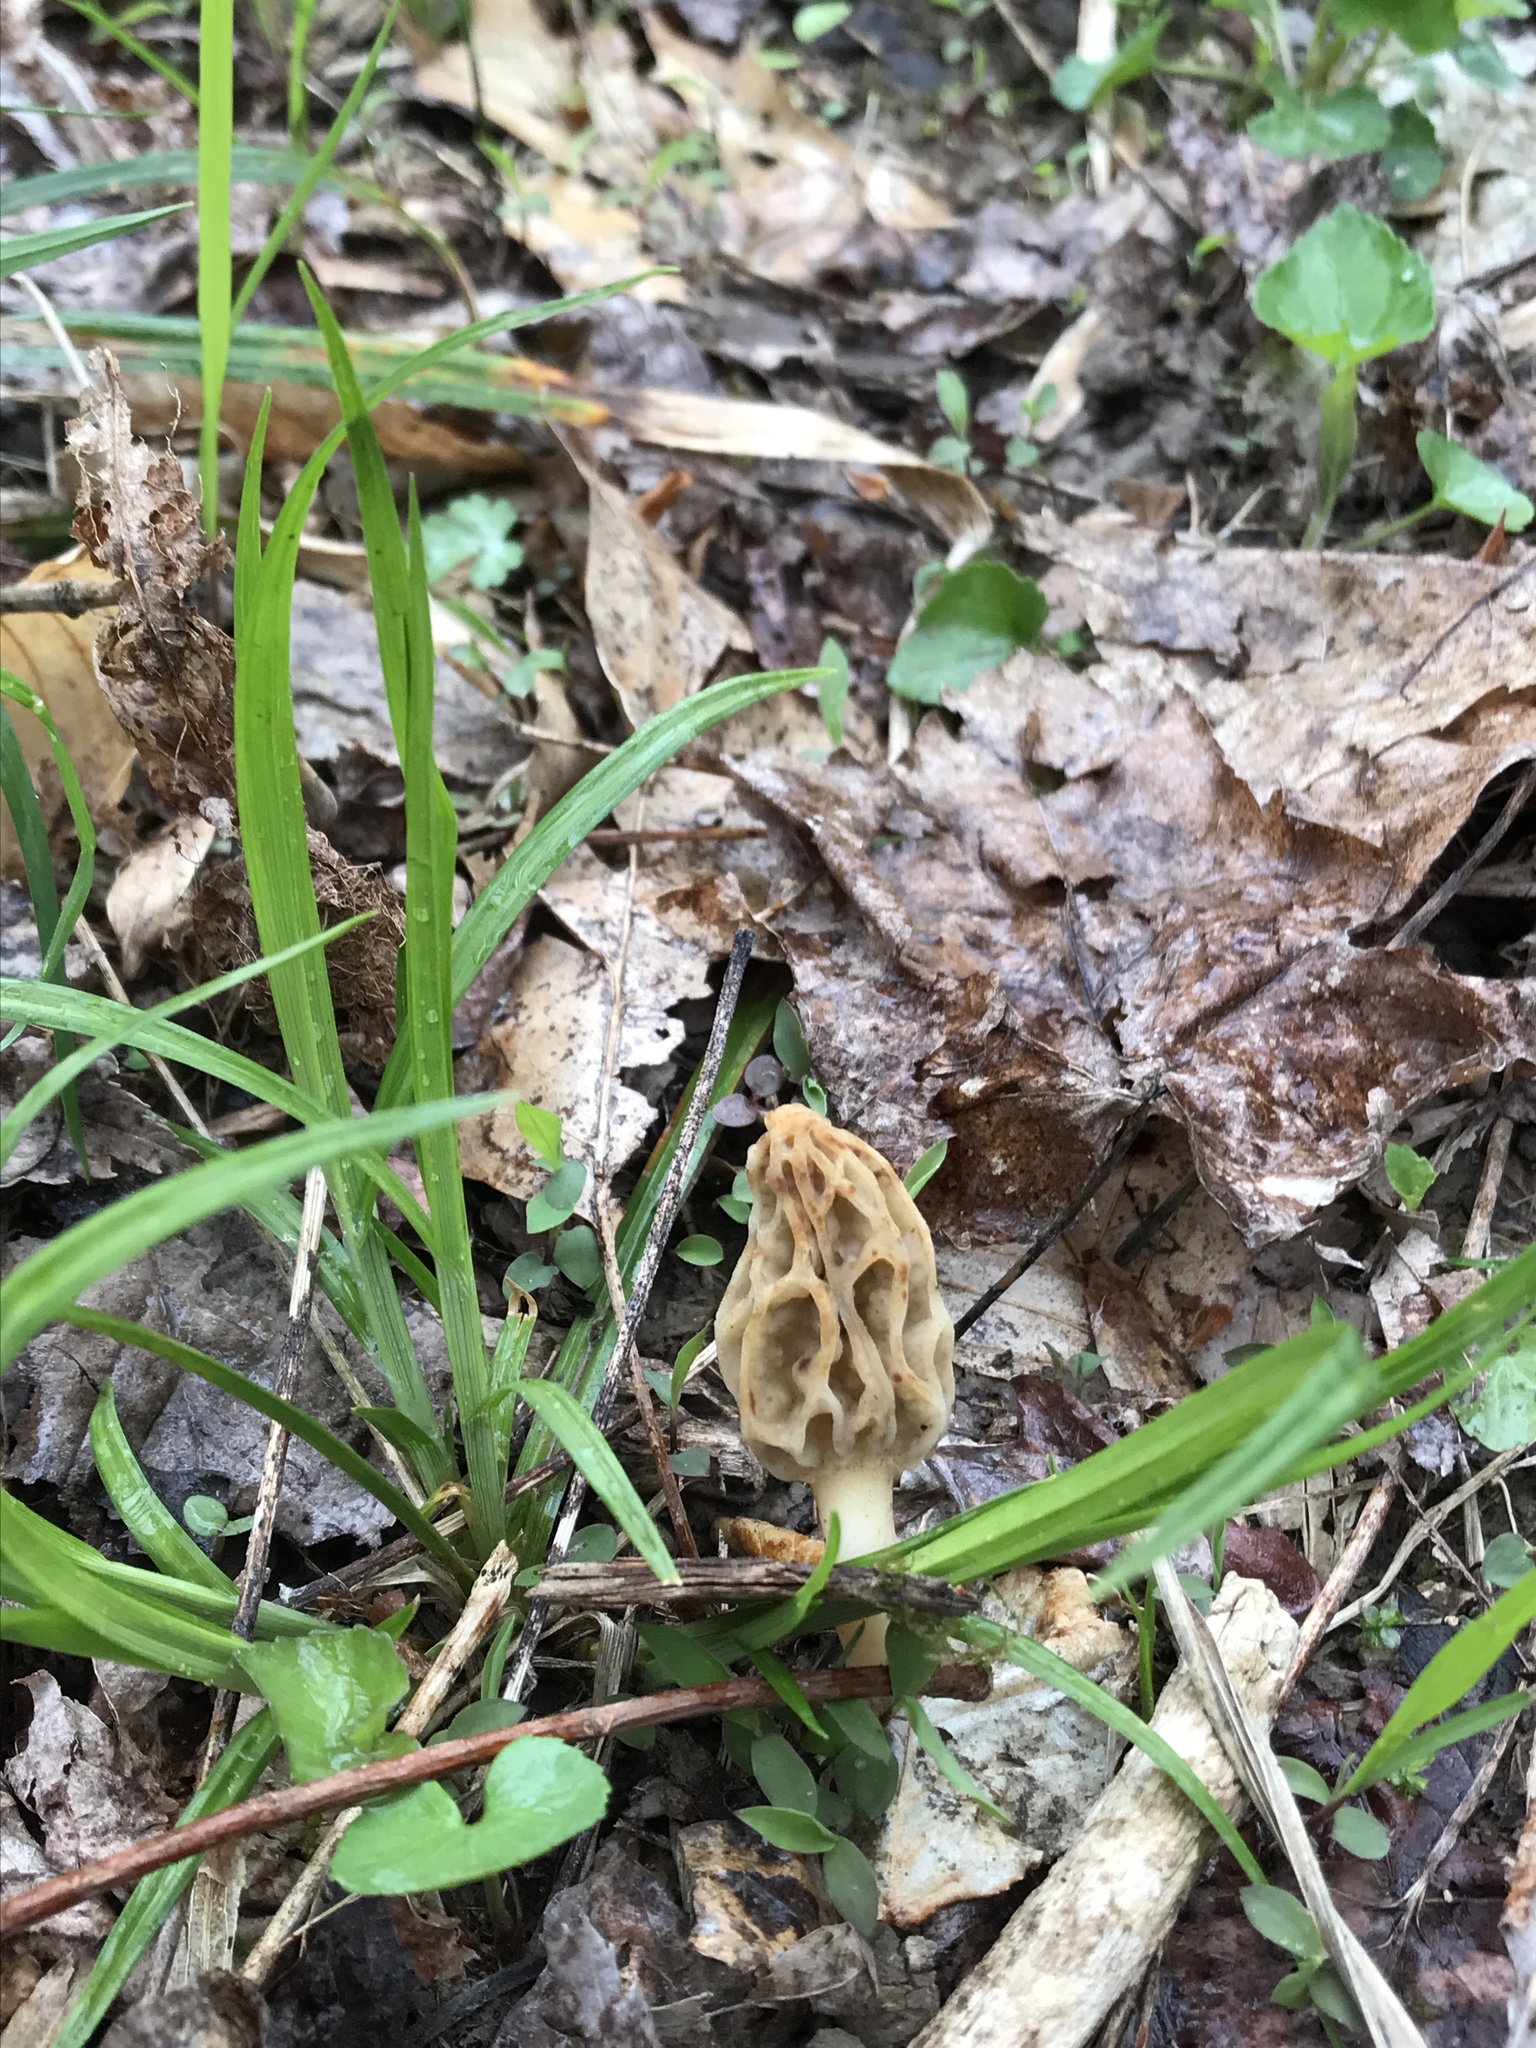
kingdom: Fungi
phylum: Ascomycota
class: Pezizomycetes
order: Pezizales
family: Morchellaceae
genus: Morchella
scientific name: Morchella diminutiva
